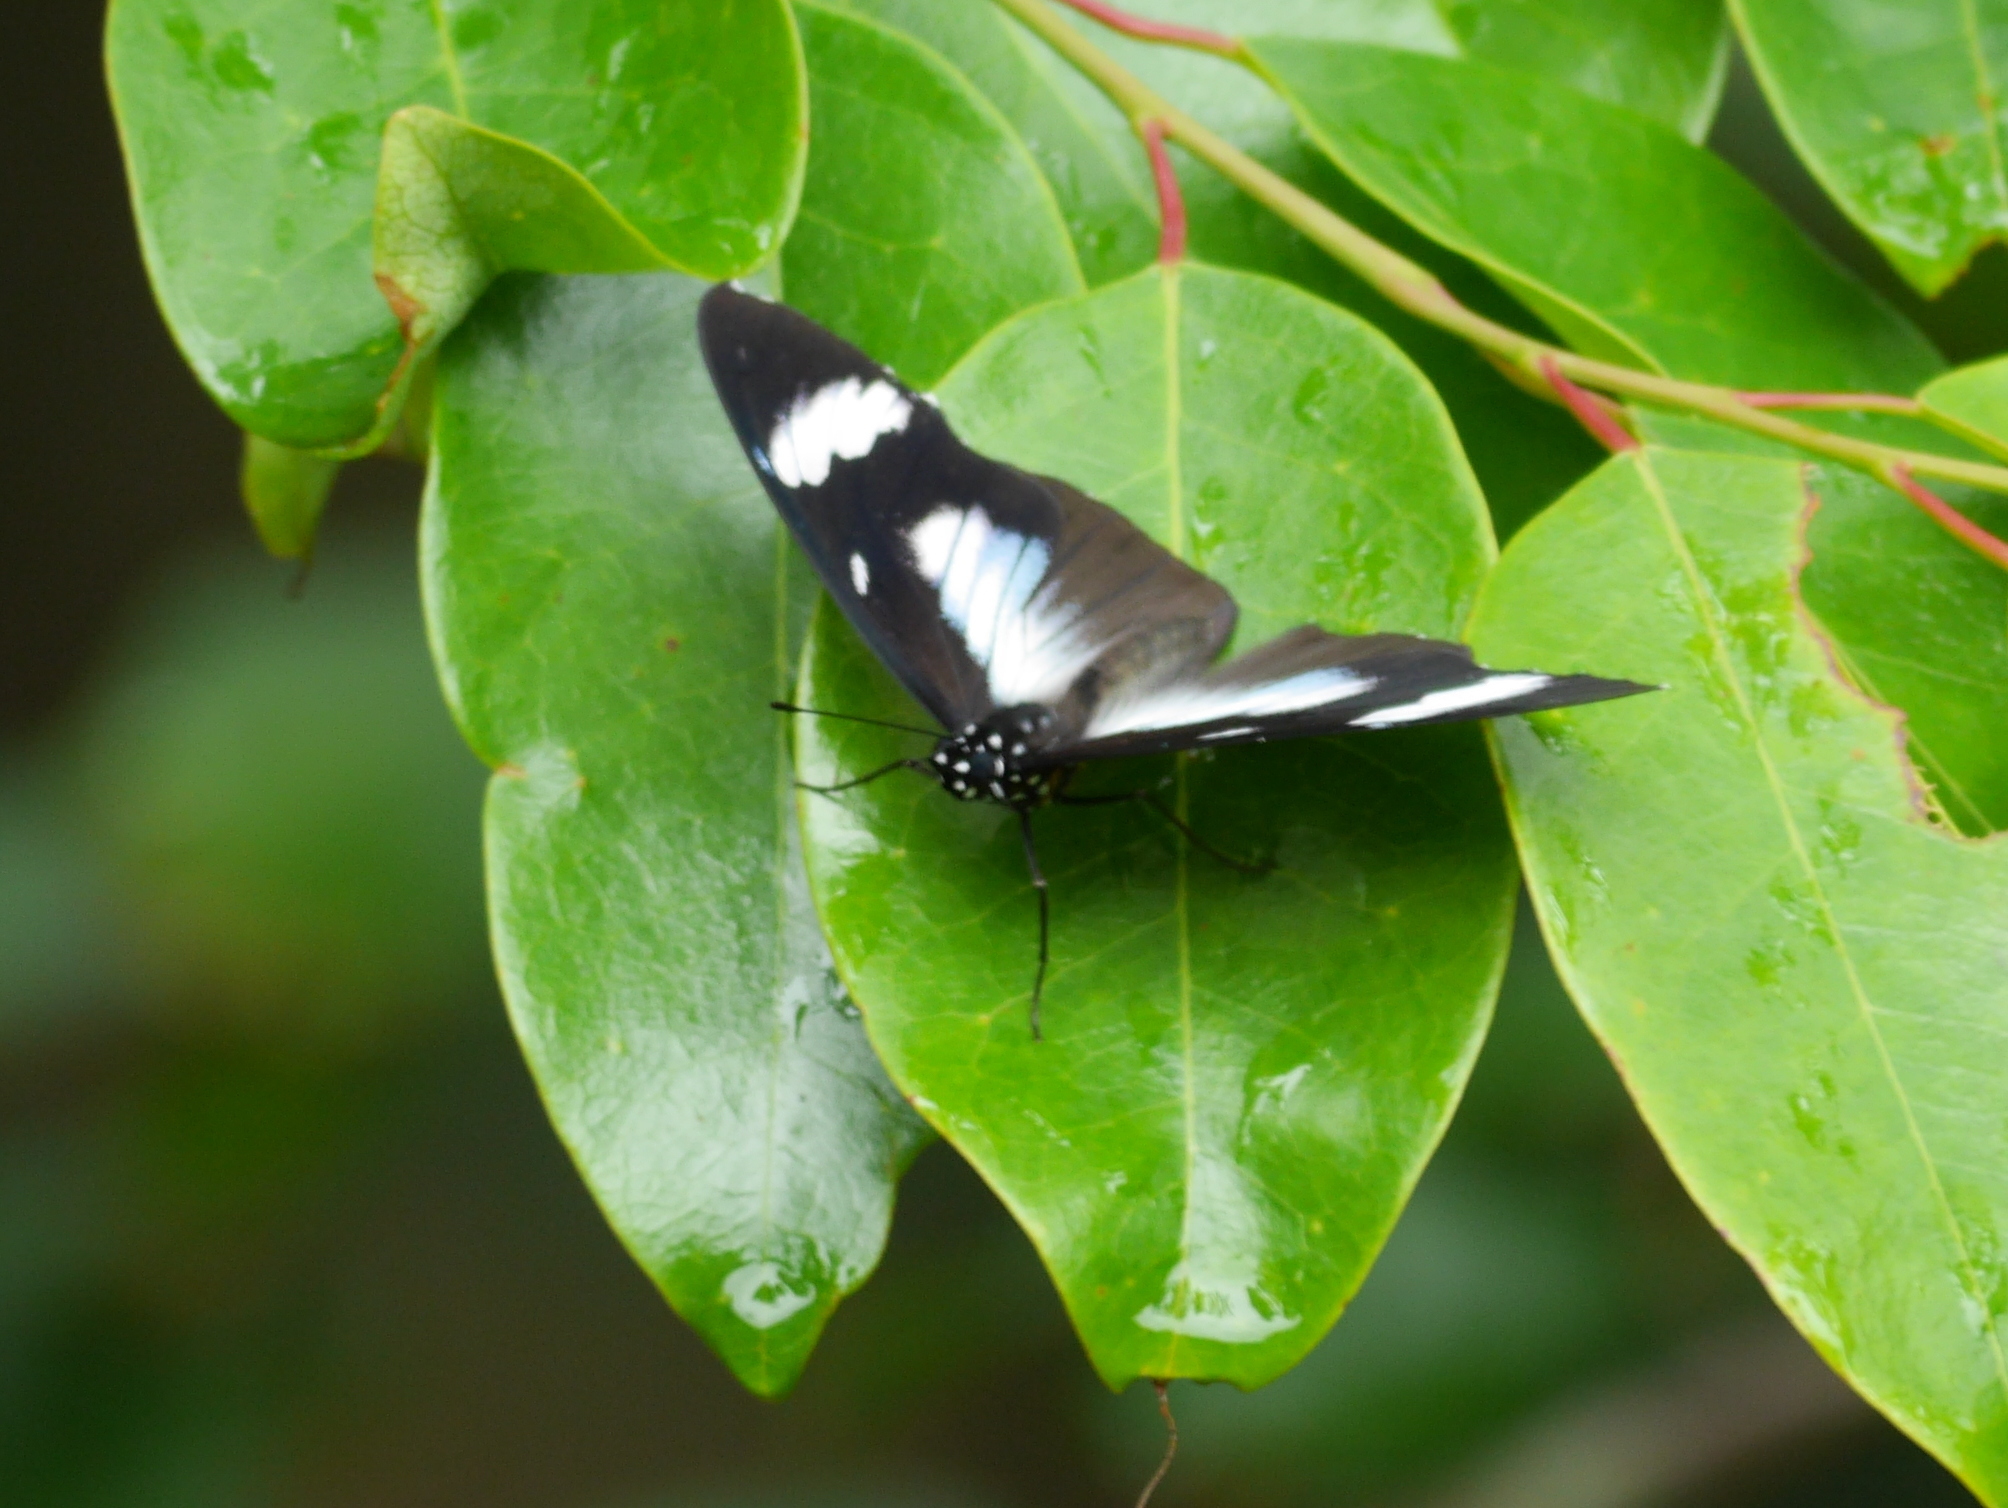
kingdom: Animalia
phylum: Arthropoda
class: Insecta
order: Lepidoptera
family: Nymphalidae
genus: Hypolimnas
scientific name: Hypolimnas dubius
